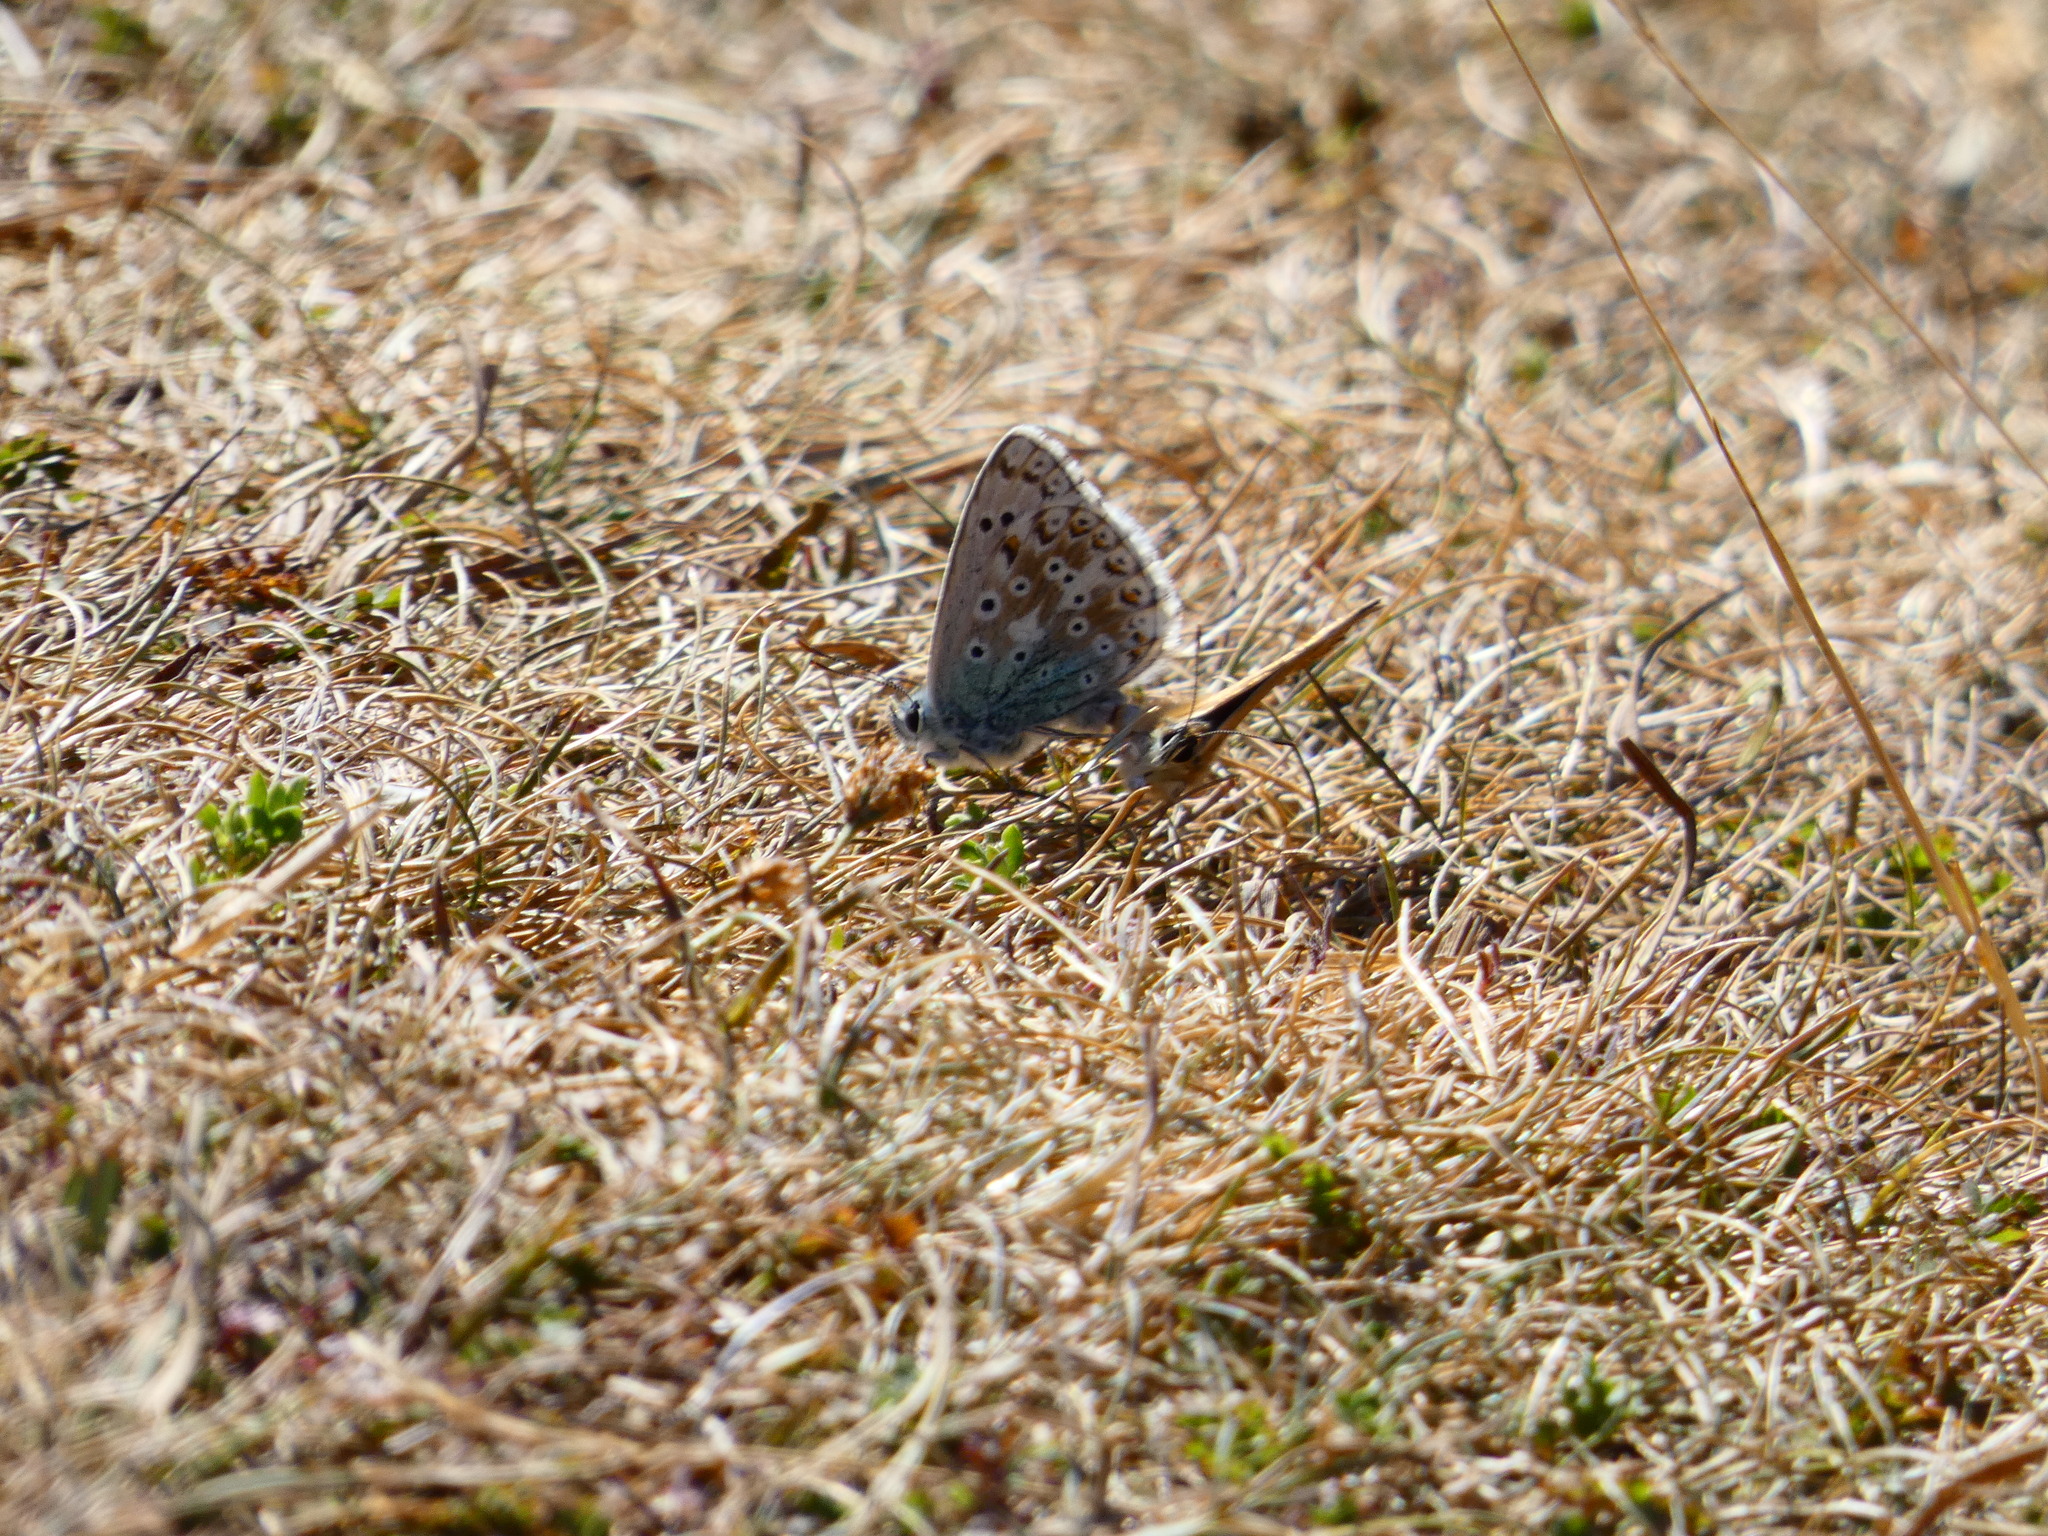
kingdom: Animalia
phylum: Arthropoda
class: Insecta
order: Lepidoptera
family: Lycaenidae
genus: Lysandra
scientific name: Lysandra coridon
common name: Chalkhill blue
